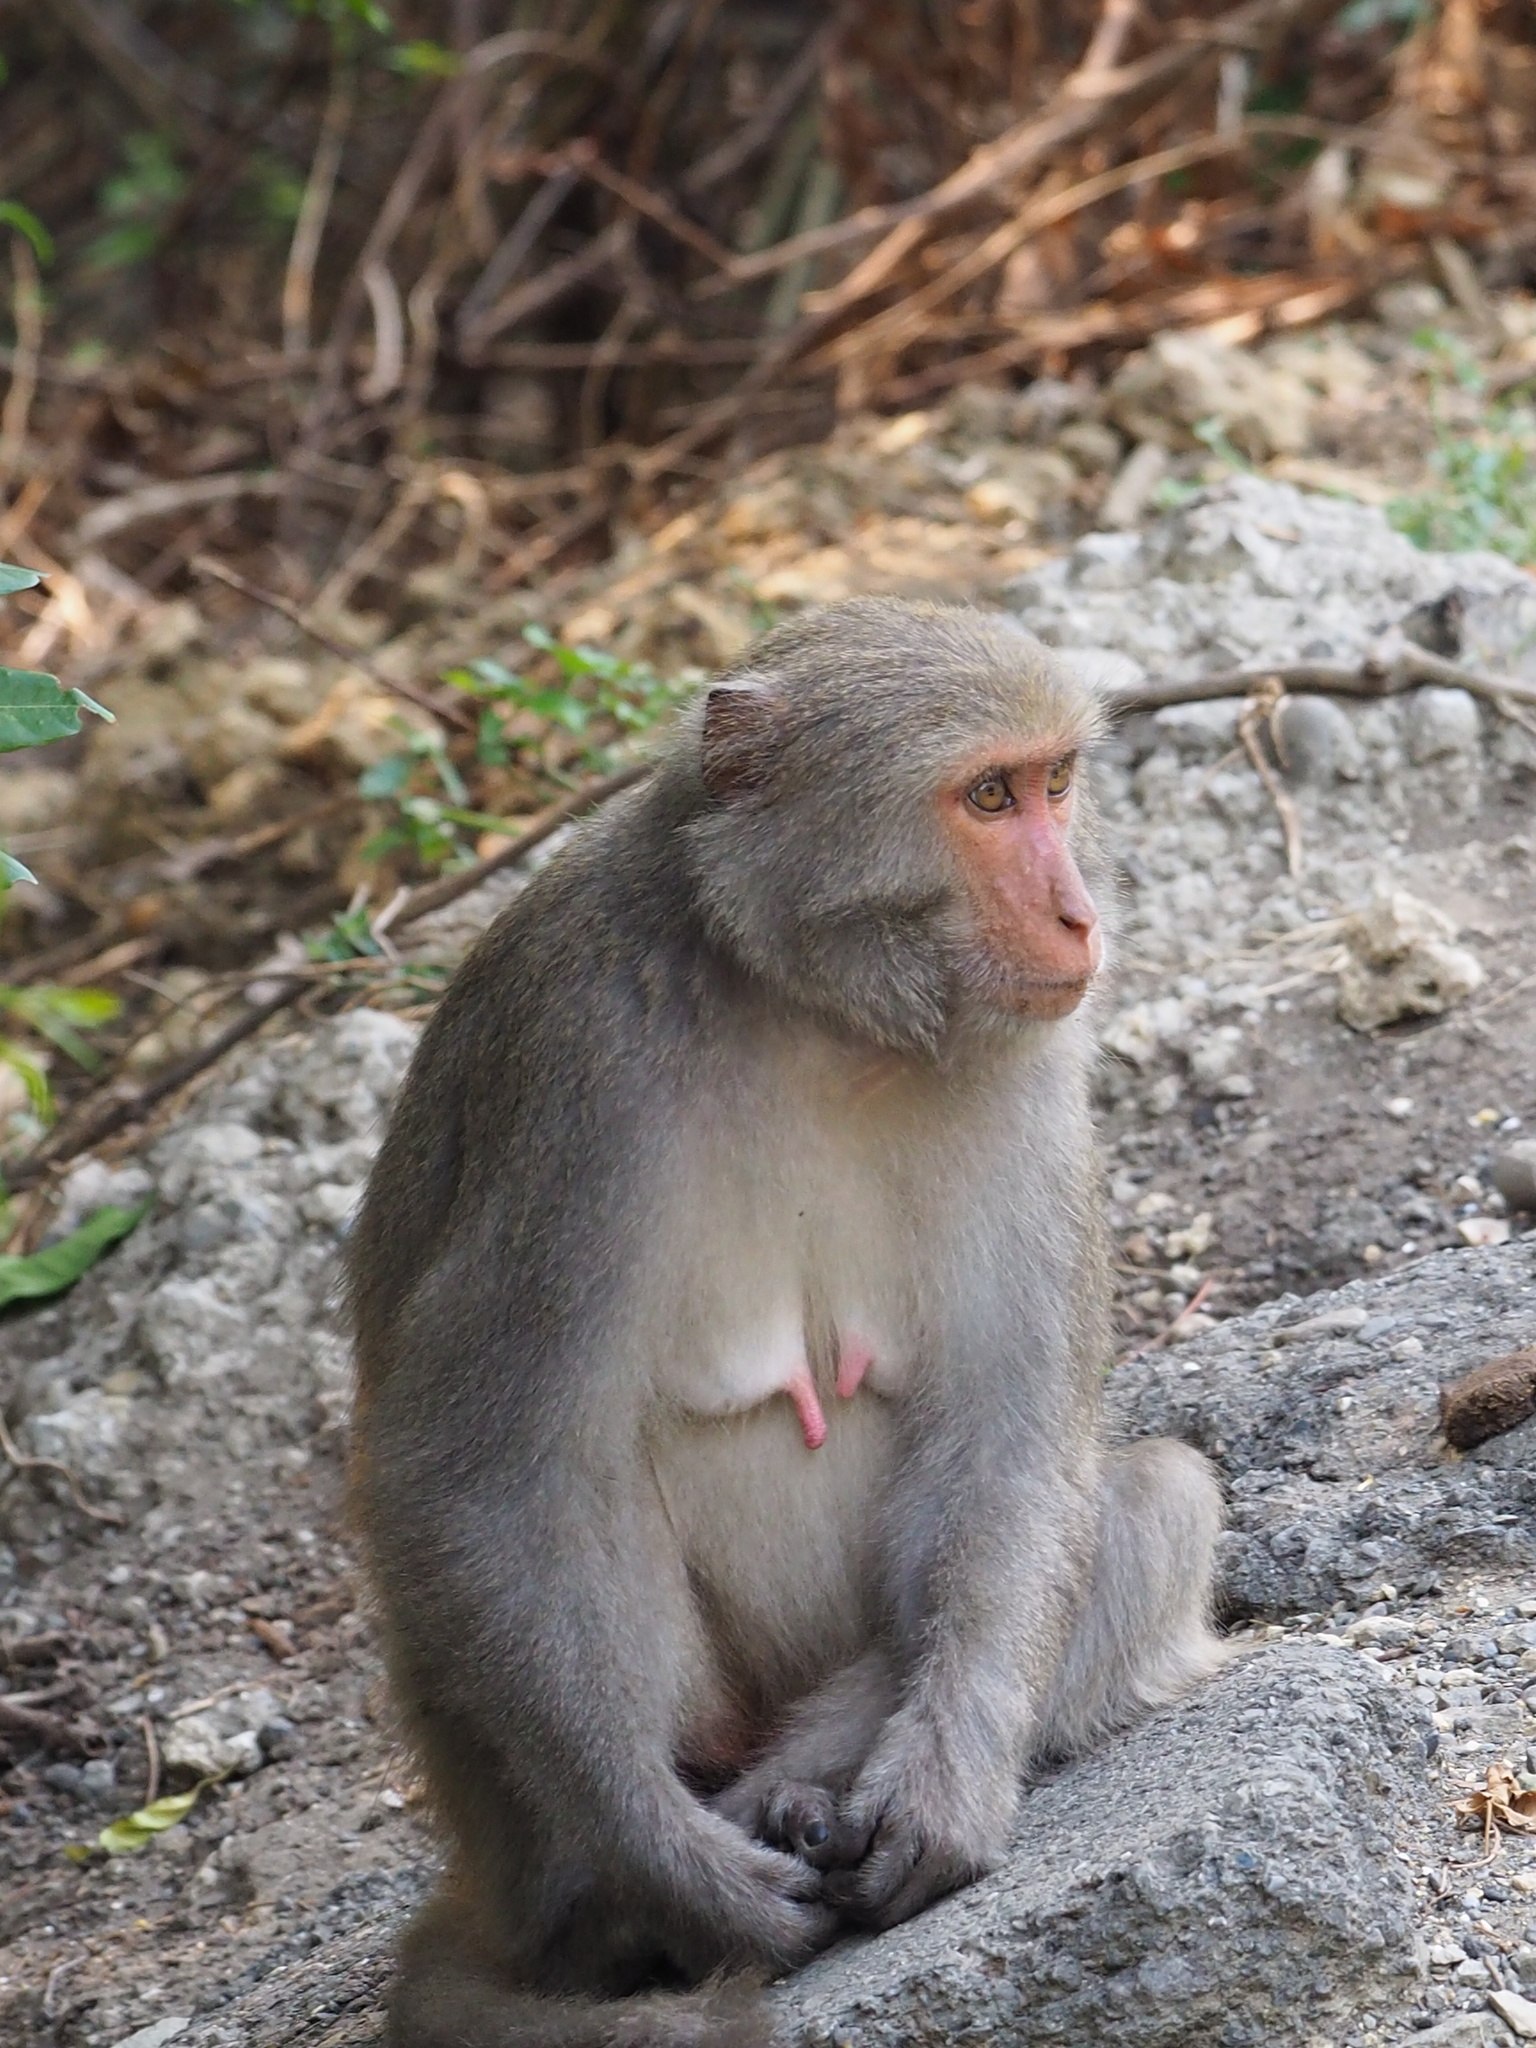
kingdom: Animalia
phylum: Chordata
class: Mammalia
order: Primates
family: Cercopithecidae
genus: Macaca
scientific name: Macaca cyclopis
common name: Formosan rock macaque
